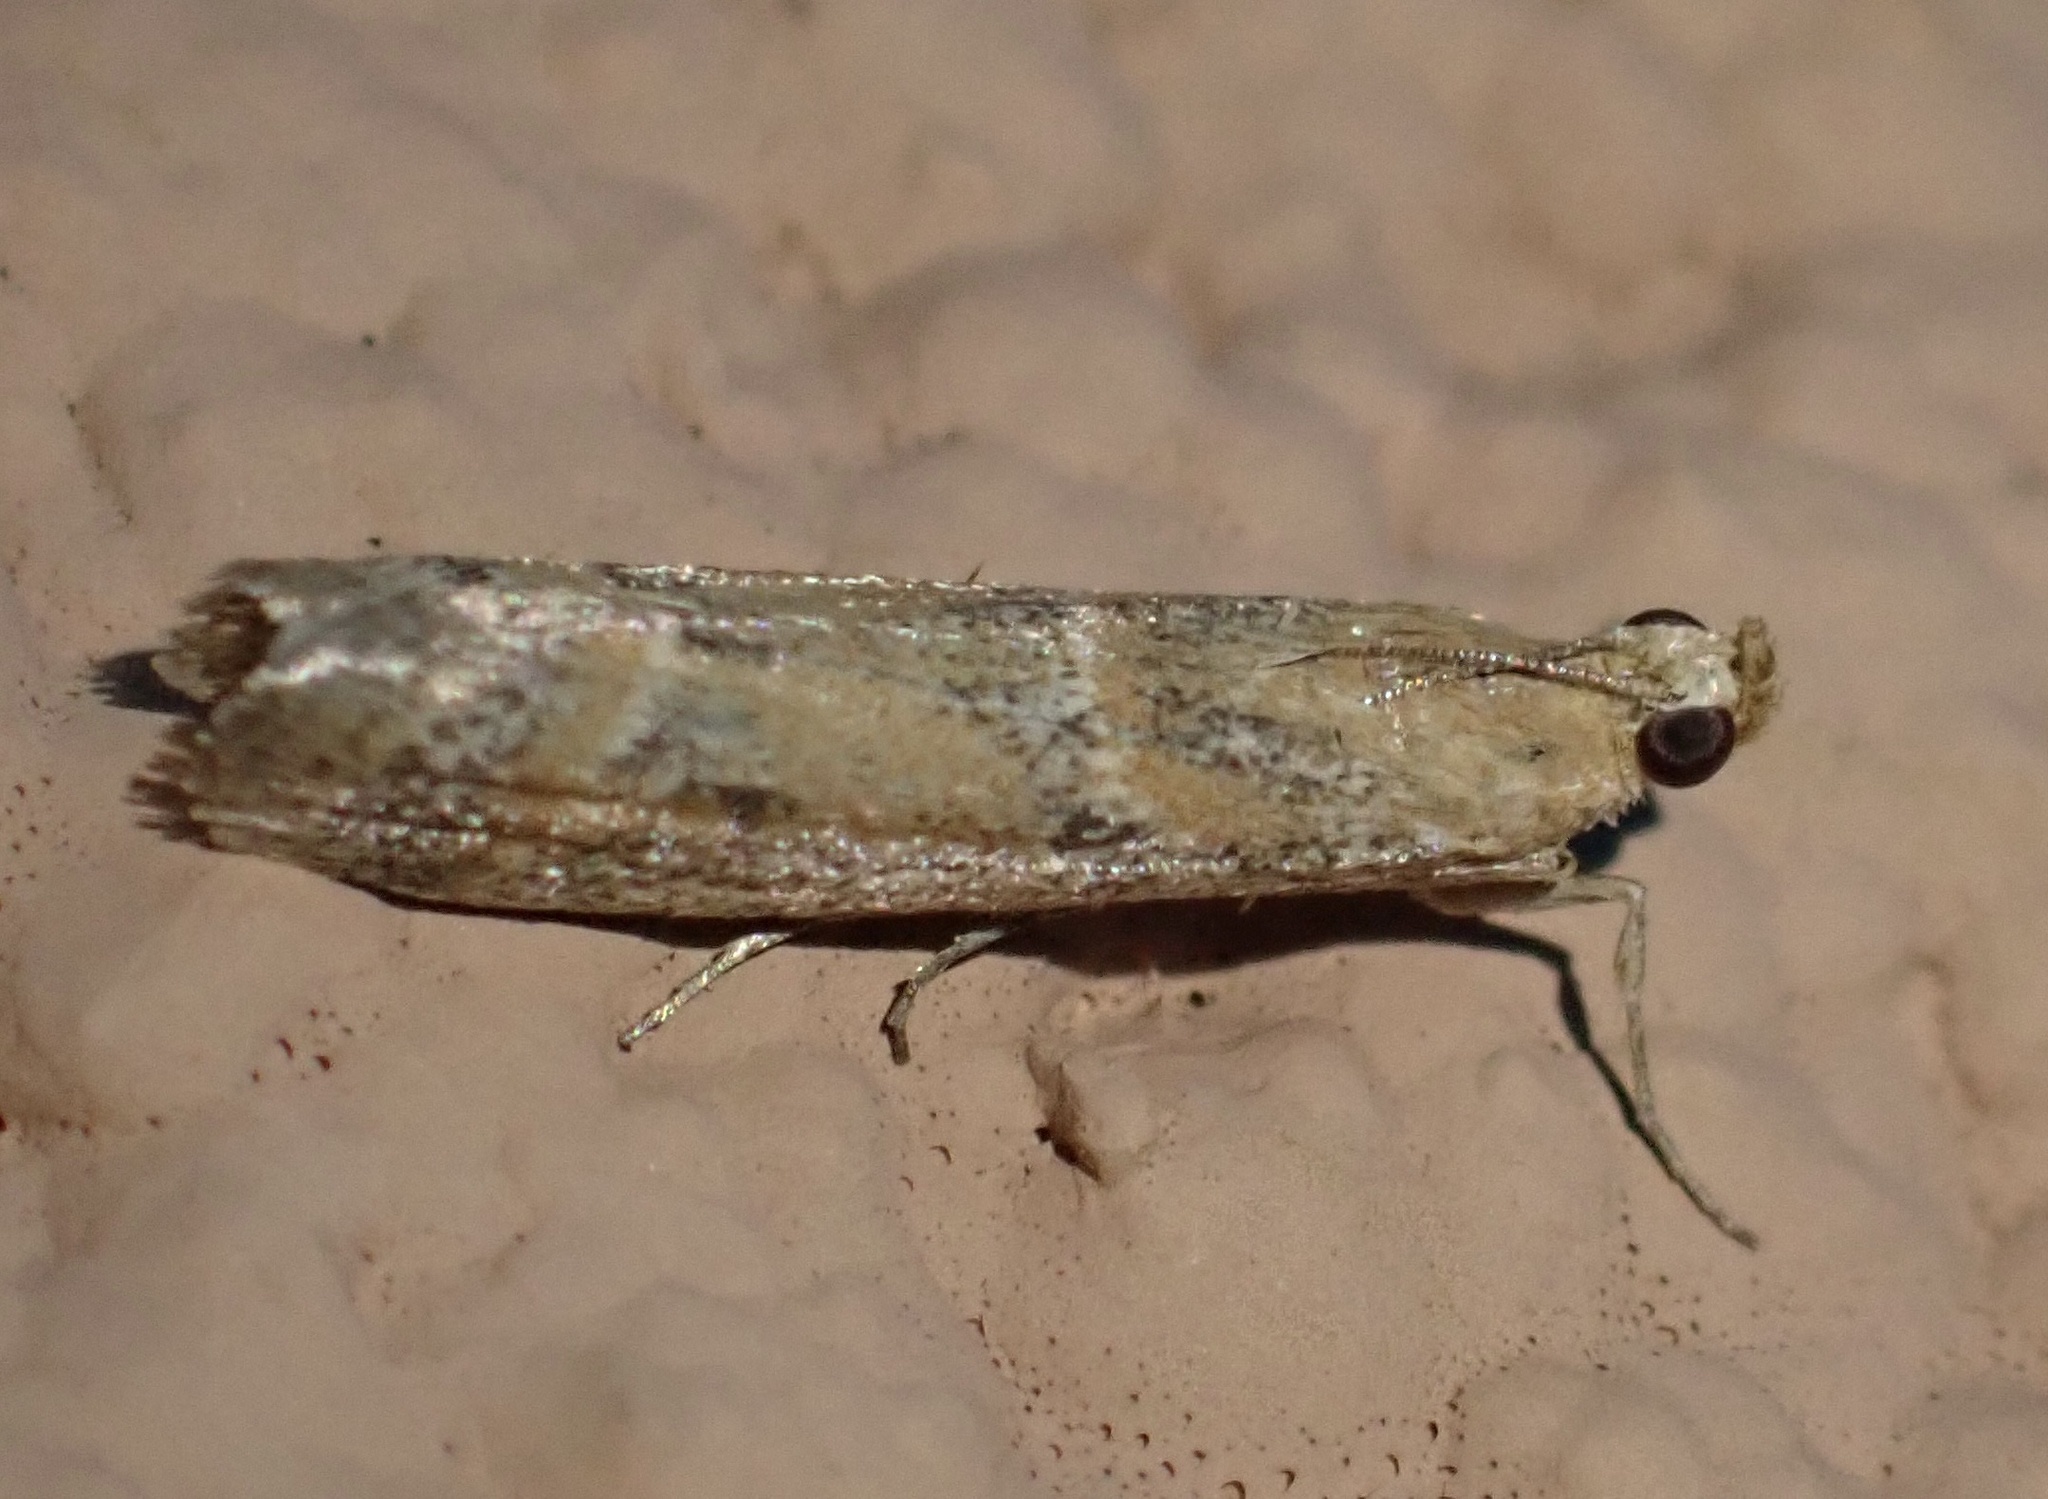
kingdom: Animalia
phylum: Arthropoda
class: Insecta
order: Lepidoptera
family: Pyralidae
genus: Ancylosis
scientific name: Ancylosis samaritanella
